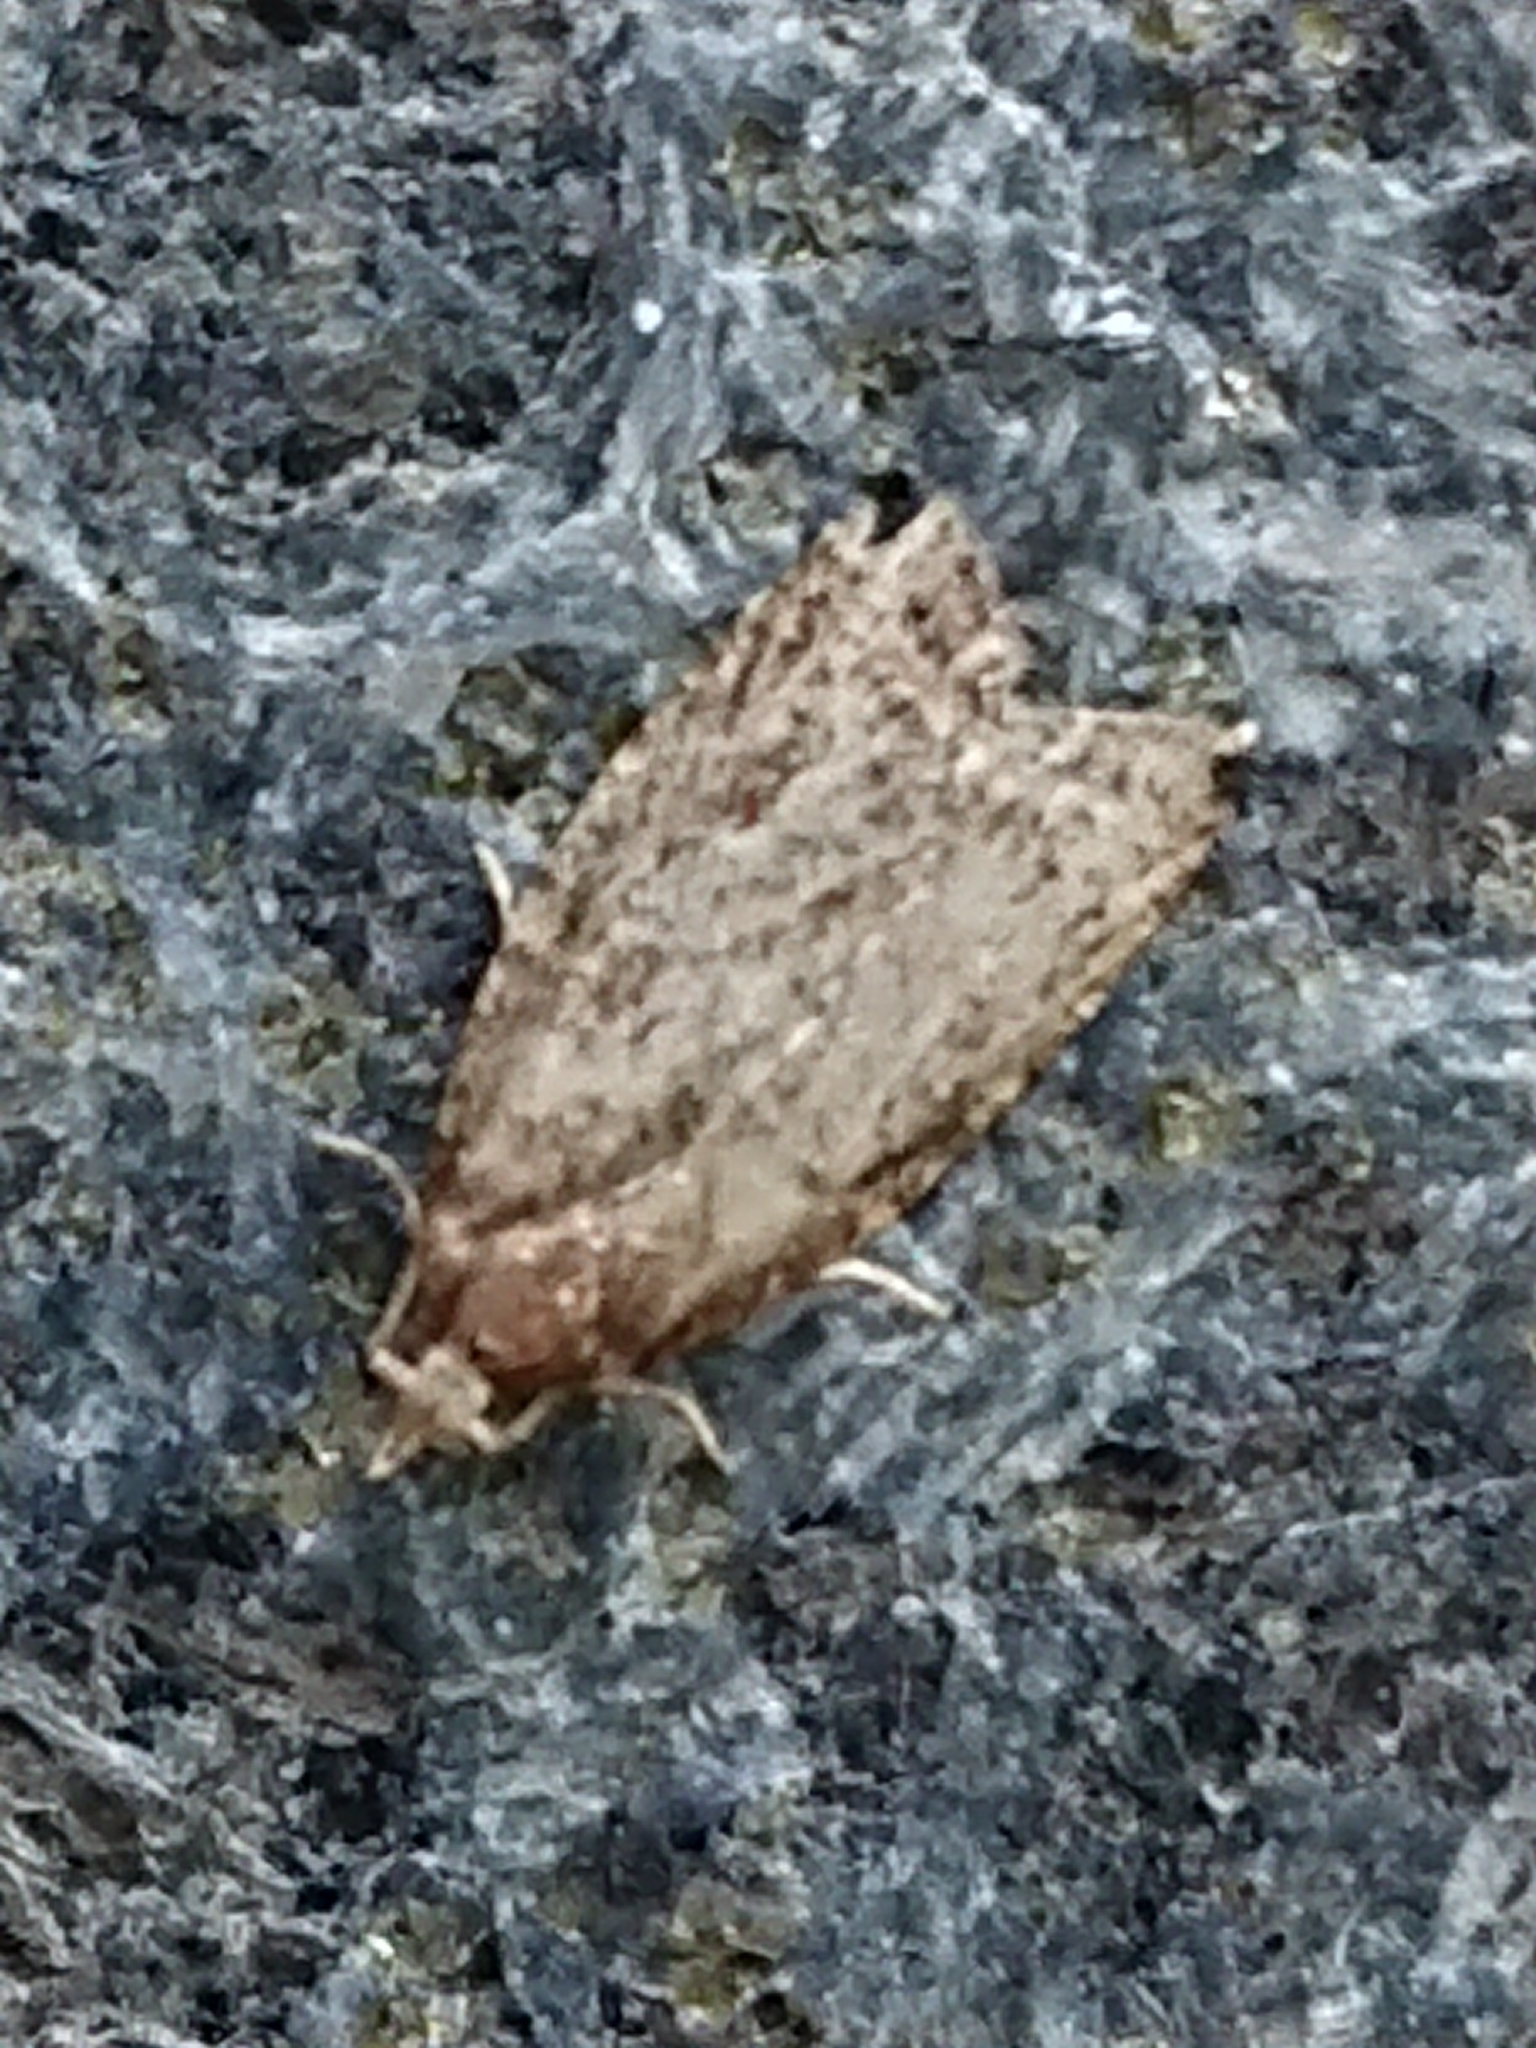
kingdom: Animalia
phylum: Arthropoda
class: Insecta
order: Lepidoptera
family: Tortricidae
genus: Capua
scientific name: Capua intractana
